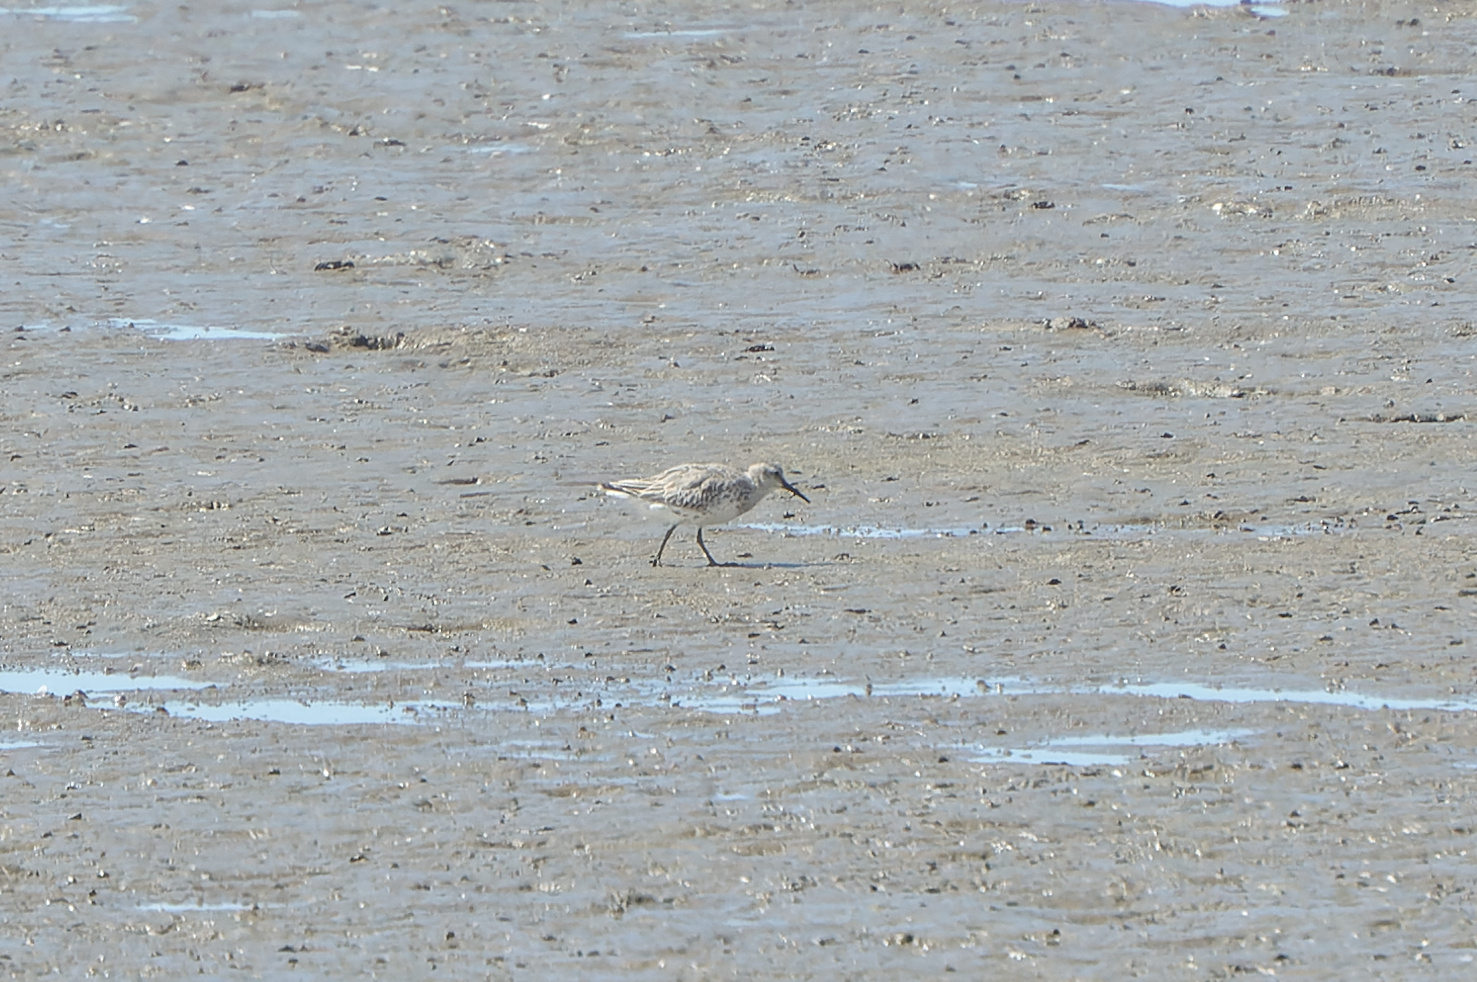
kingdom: Animalia
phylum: Chordata
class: Aves
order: Charadriiformes
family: Scolopacidae
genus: Calidris
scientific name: Calidris tenuirostris
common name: Great knot
